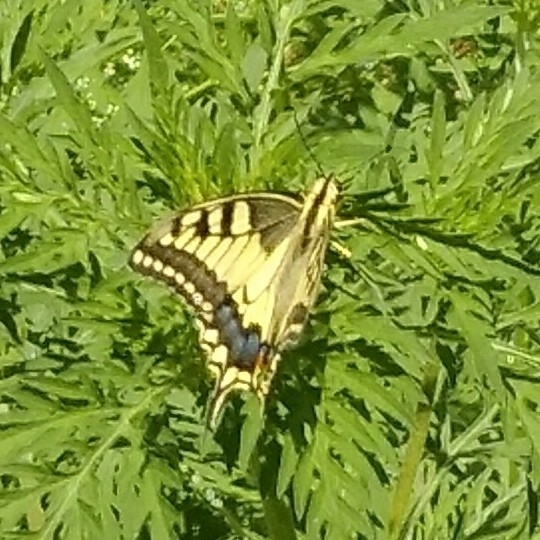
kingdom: Animalia
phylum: Arthropoda
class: Insecta
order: Lepidoptera
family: Papilionidae
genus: Papilio
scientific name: Papilio machaon
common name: Swallowtail
